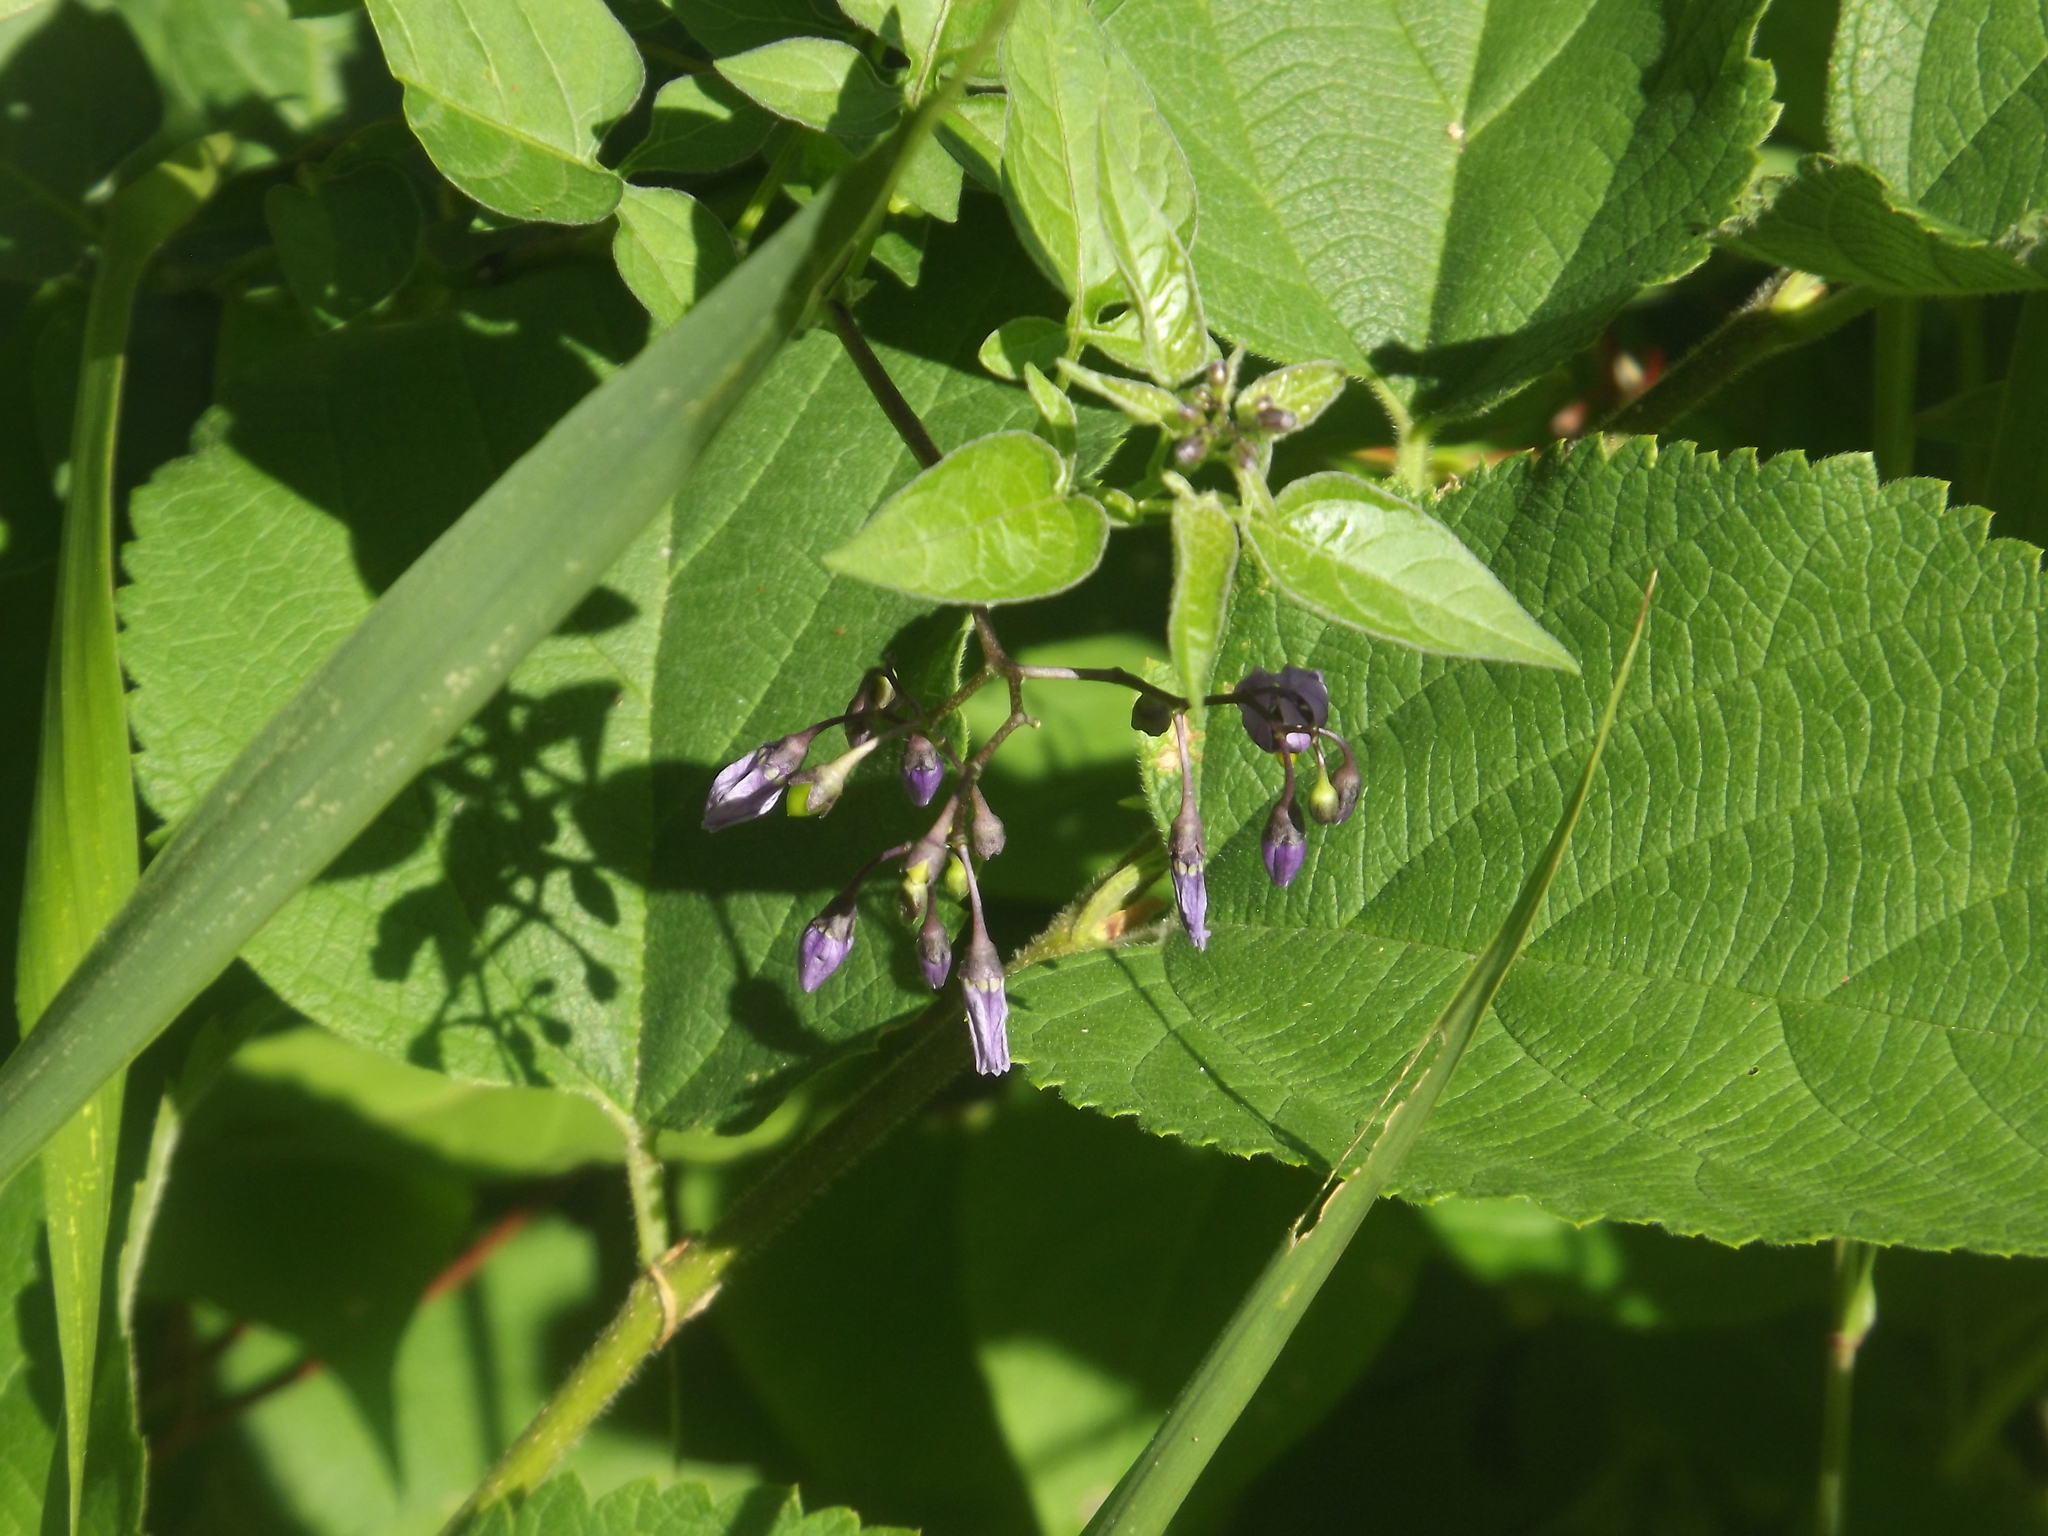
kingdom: Plantae
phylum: Tracheophyta
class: Magnoliopsida
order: Solanales
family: Solanaceae
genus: Solanum
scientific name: Solanum dulcamara
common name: Climbing nightshade
